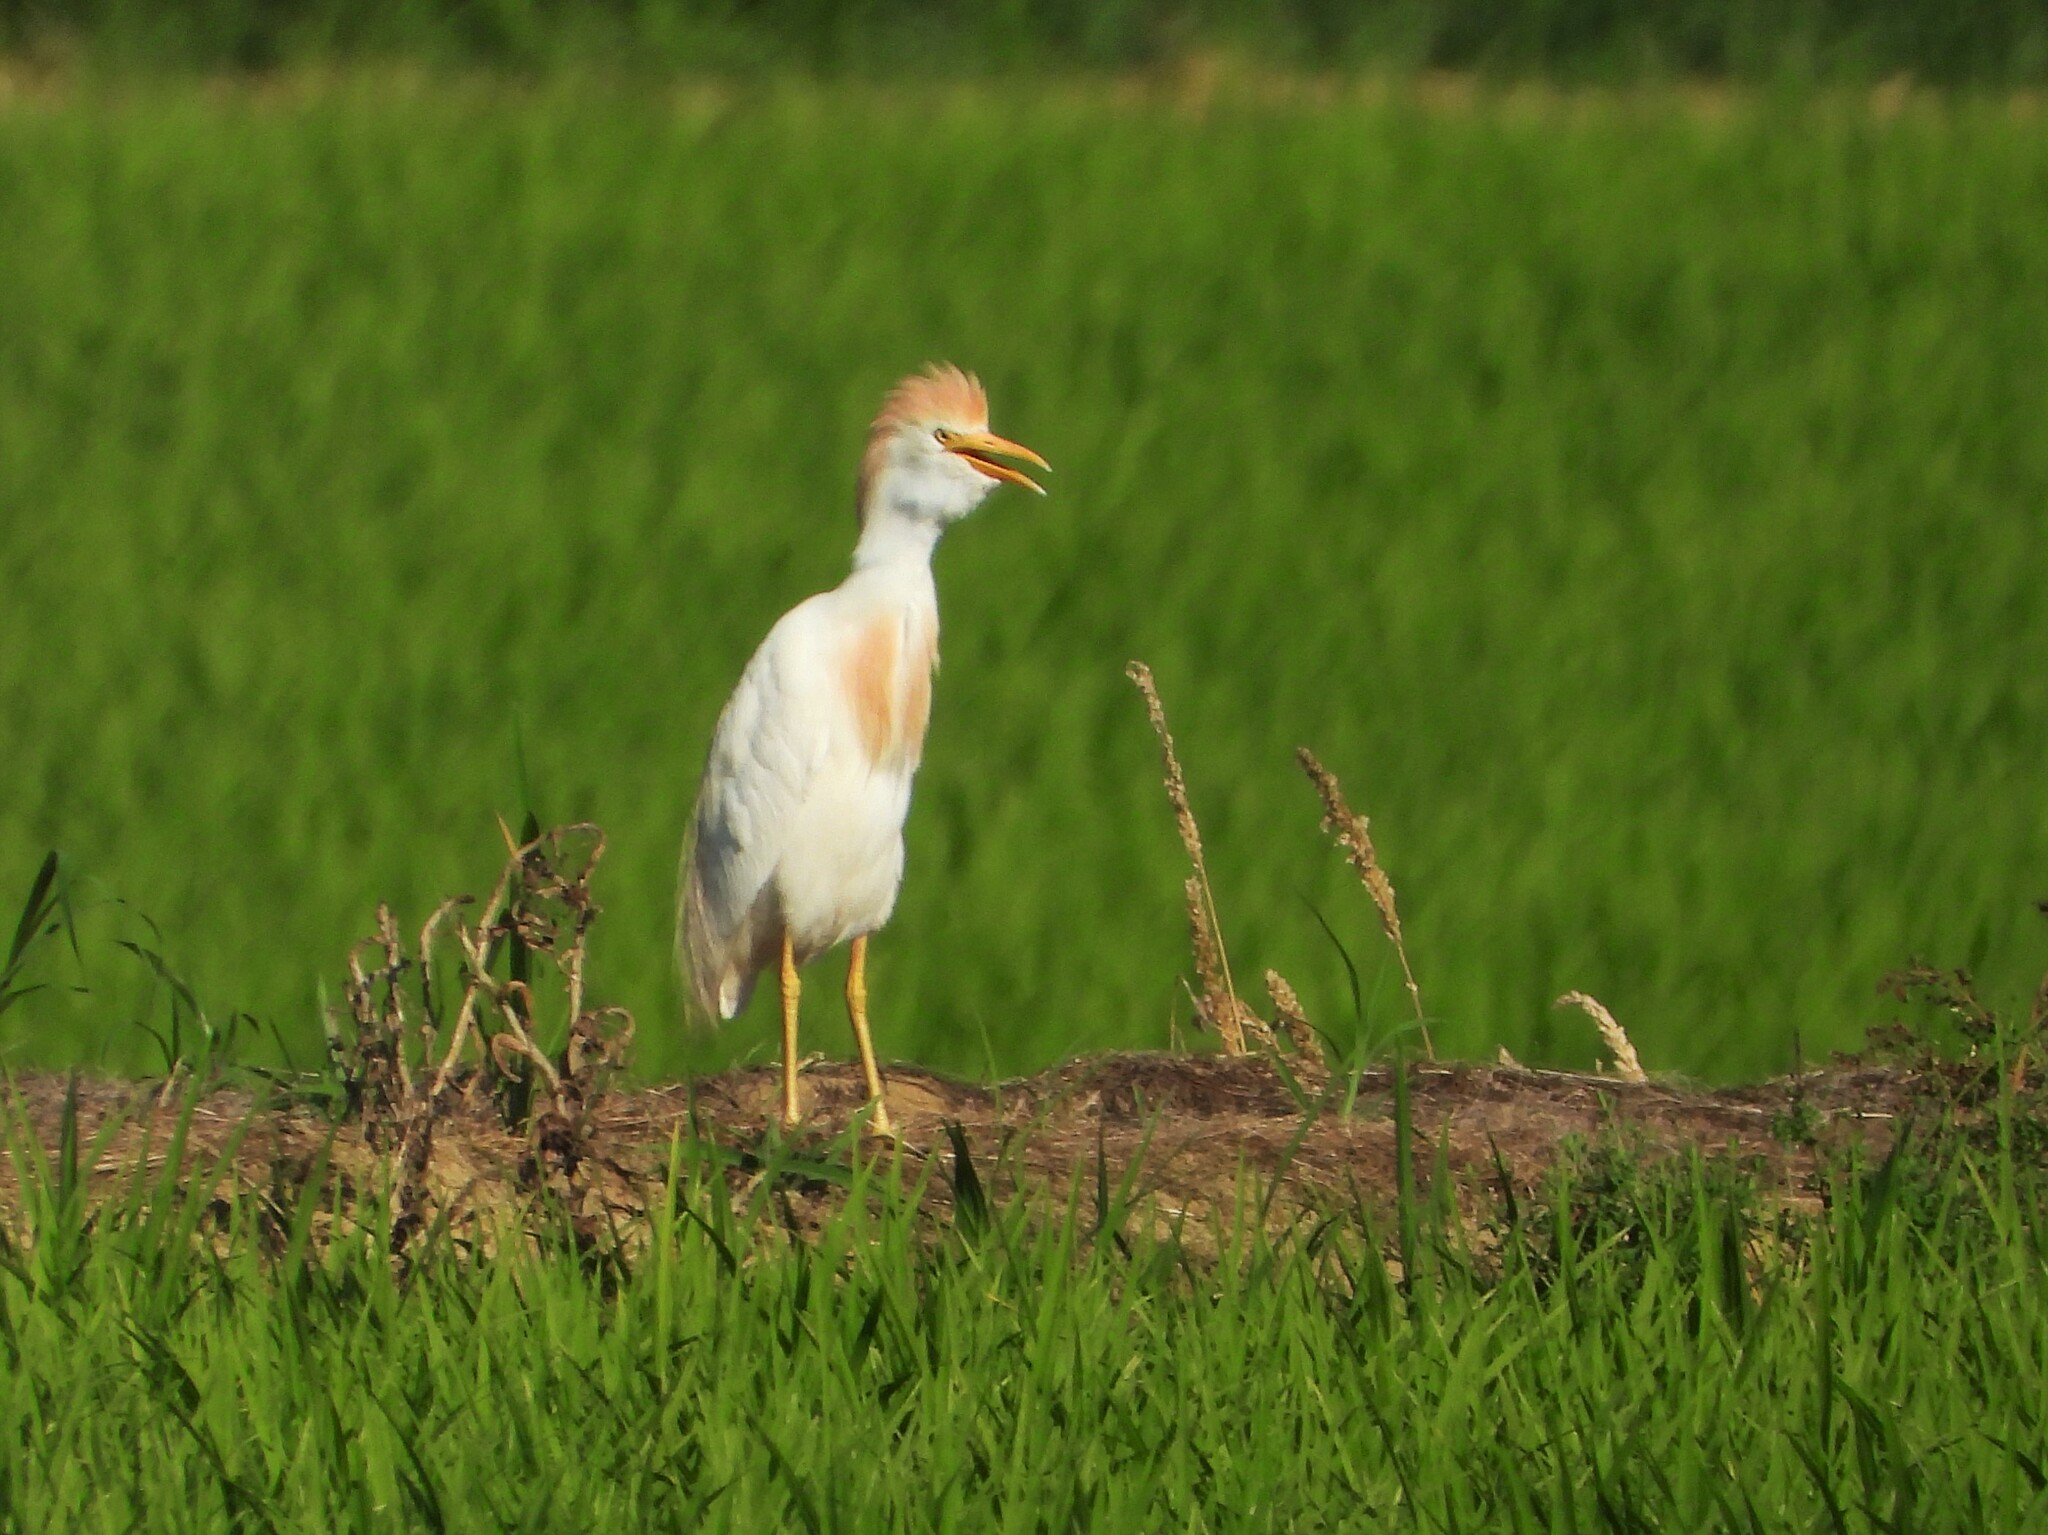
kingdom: Animalia
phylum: Chordata
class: Aves
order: Pelecaniformes
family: Ardeidae
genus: Bubulcus
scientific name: Bubulcus ibis
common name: Cattle egret
